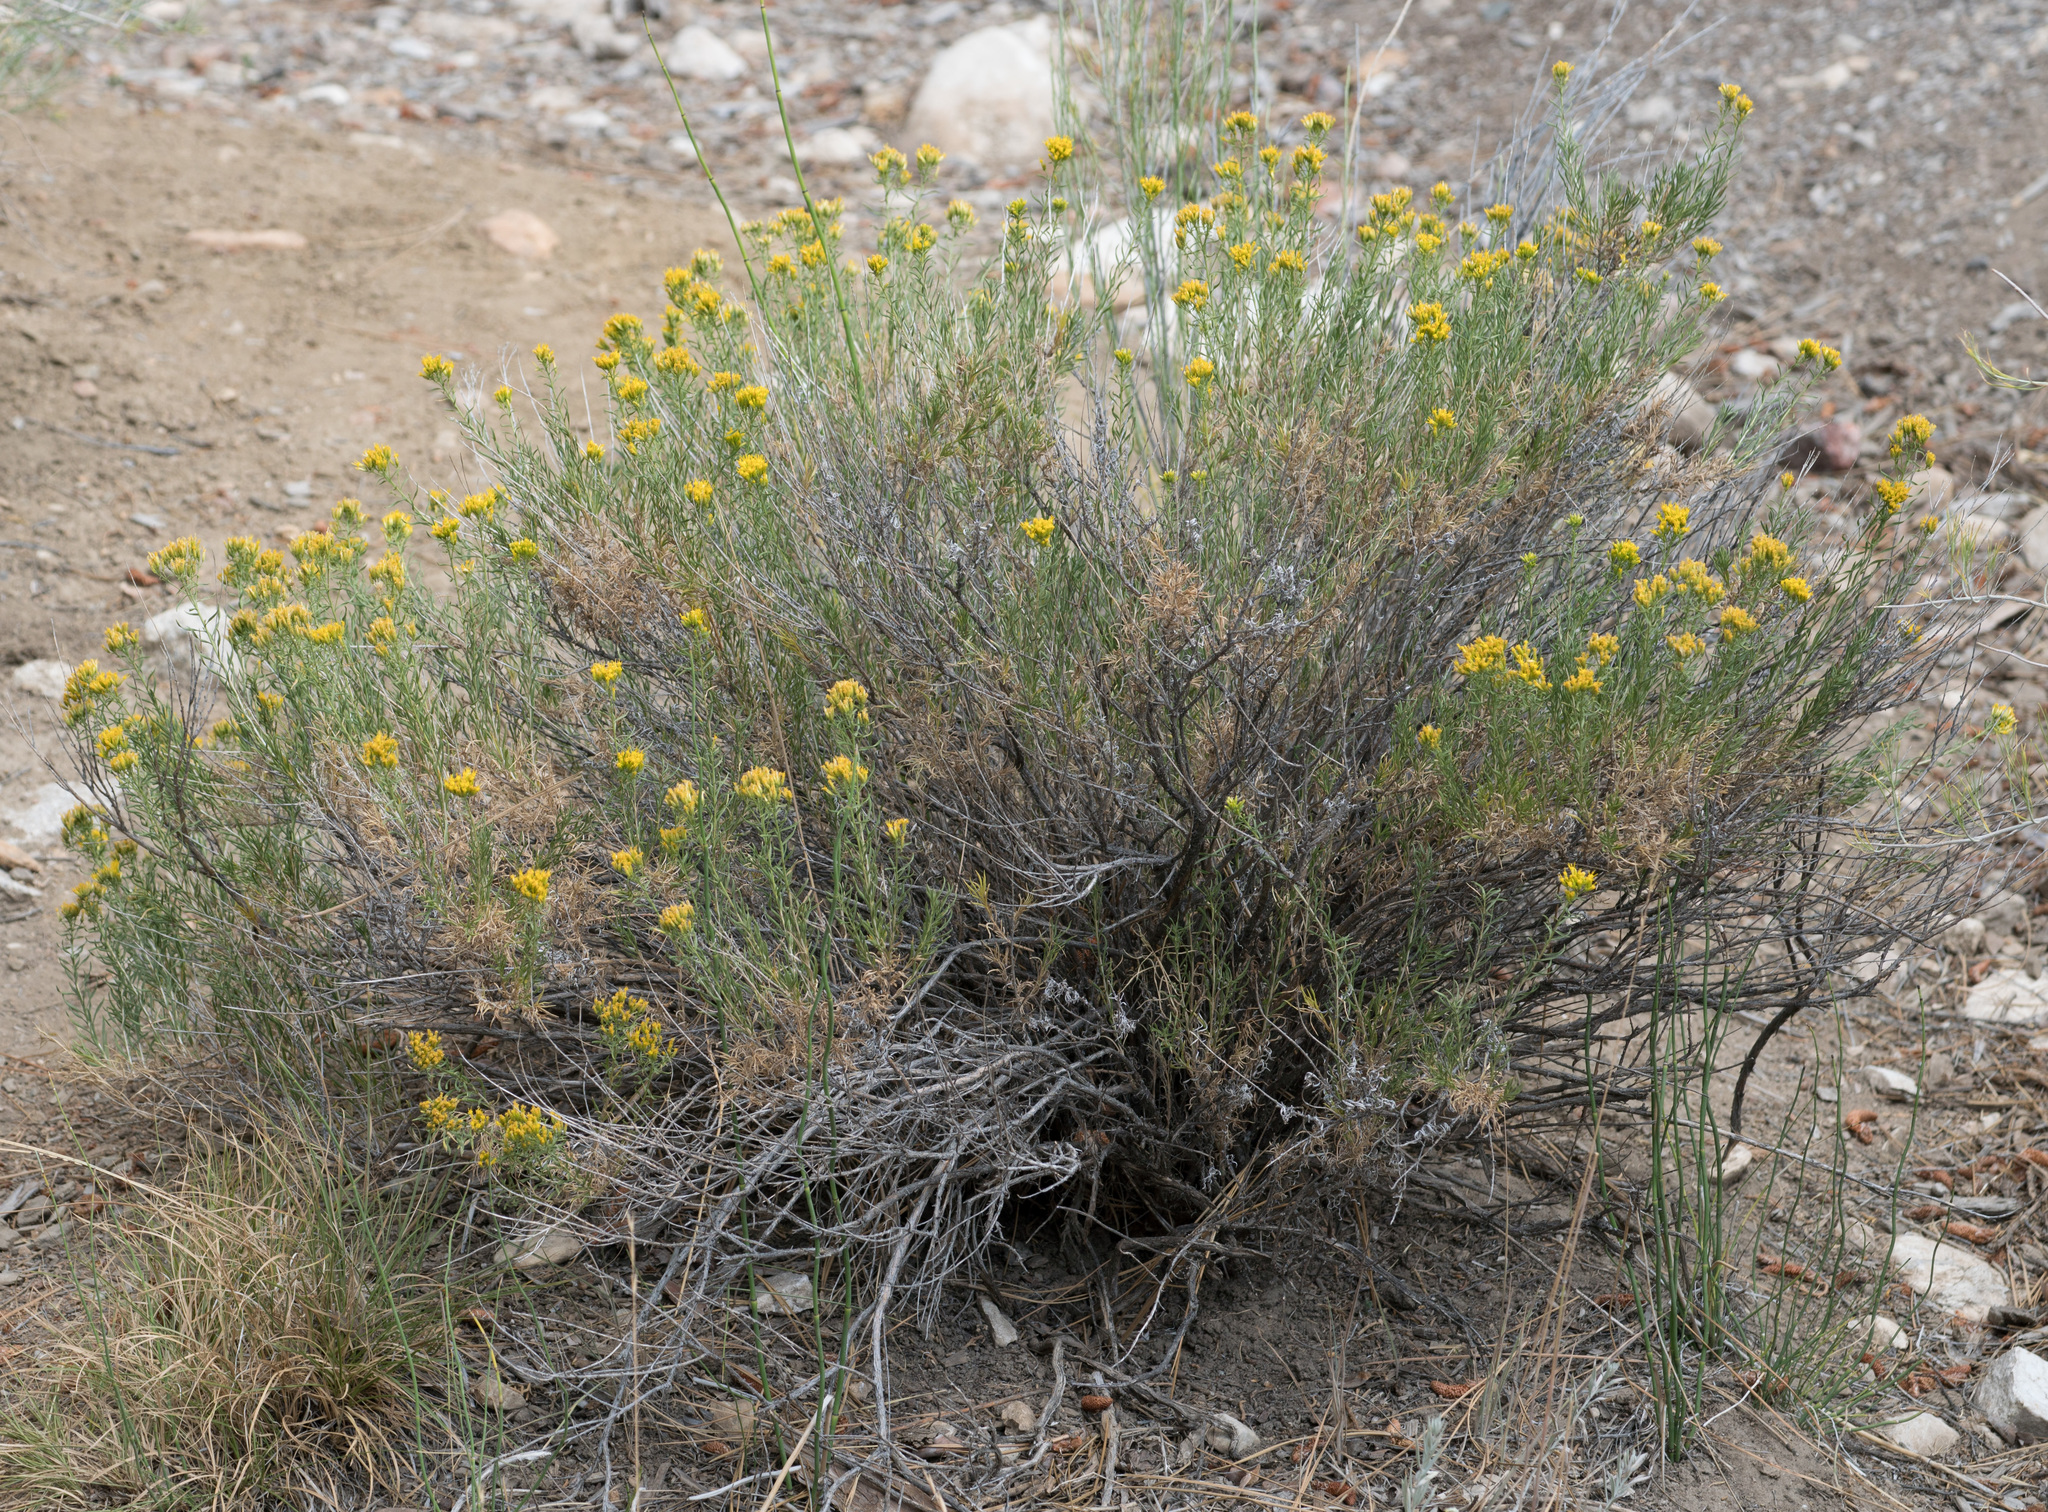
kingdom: Plantae
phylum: Tracheophyta
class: Magnoliopsida
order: Asterales
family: Asteraceae
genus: Ericameria
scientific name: Ericameria nauseosa
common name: Rubber rabbitbrush
